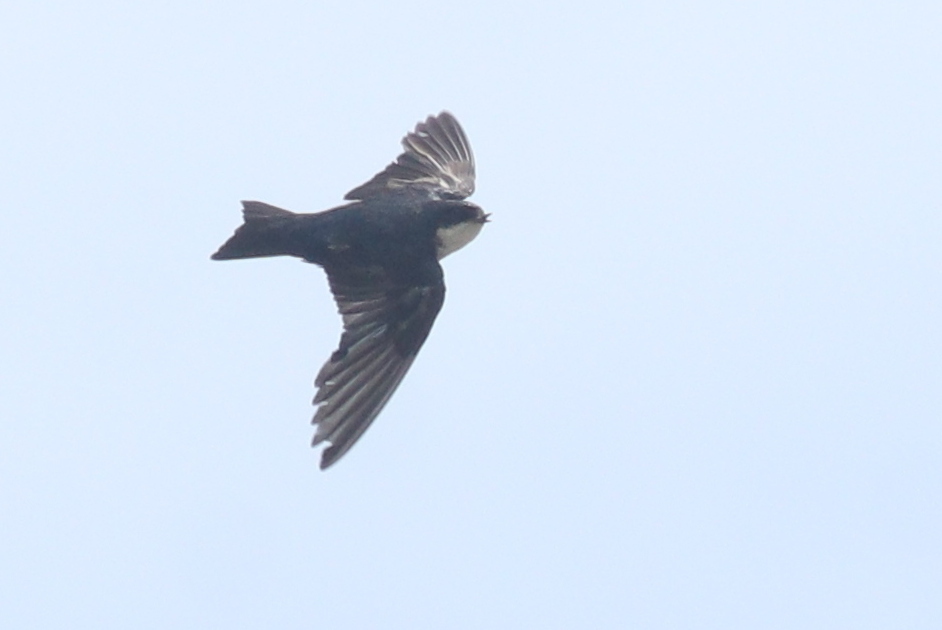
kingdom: Animalia
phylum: Chordata
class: Aves
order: Passeriformes
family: Hirundinidae
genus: Notiochelidon
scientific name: Notiochelidon cyanoleuca
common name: Blue-and-white swallow
